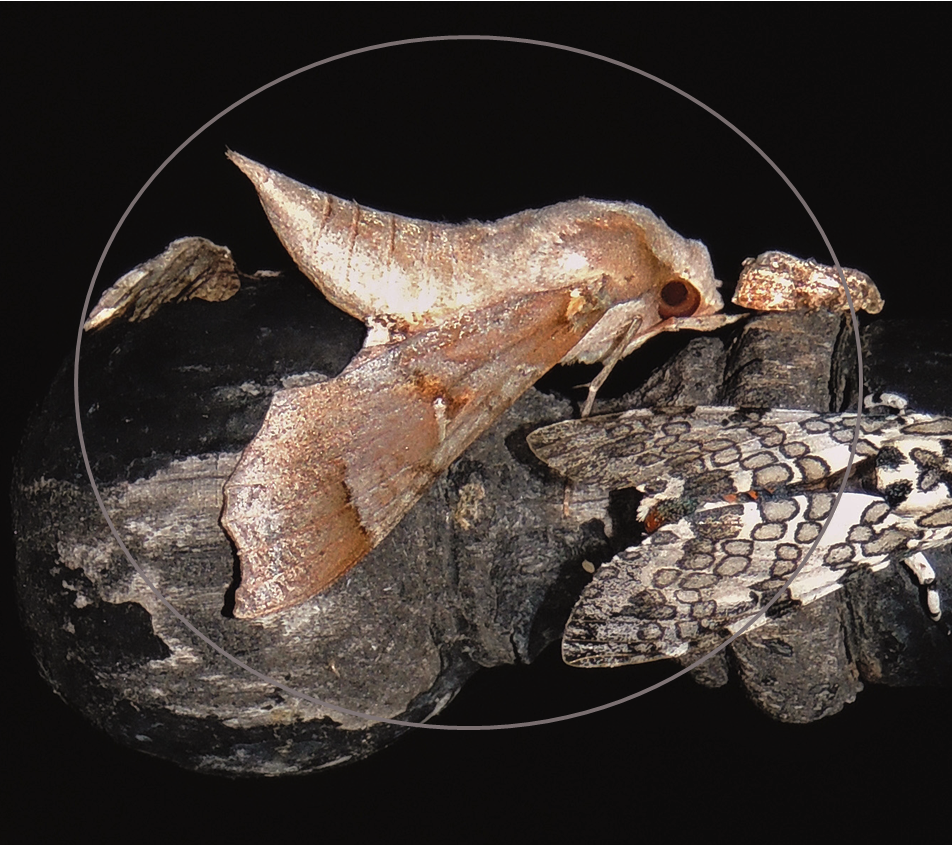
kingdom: Animalia
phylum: Arthropoda
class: Insecta
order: Lepidoptera
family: Sphingidae
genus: Callionima
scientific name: Callionima grisescens
